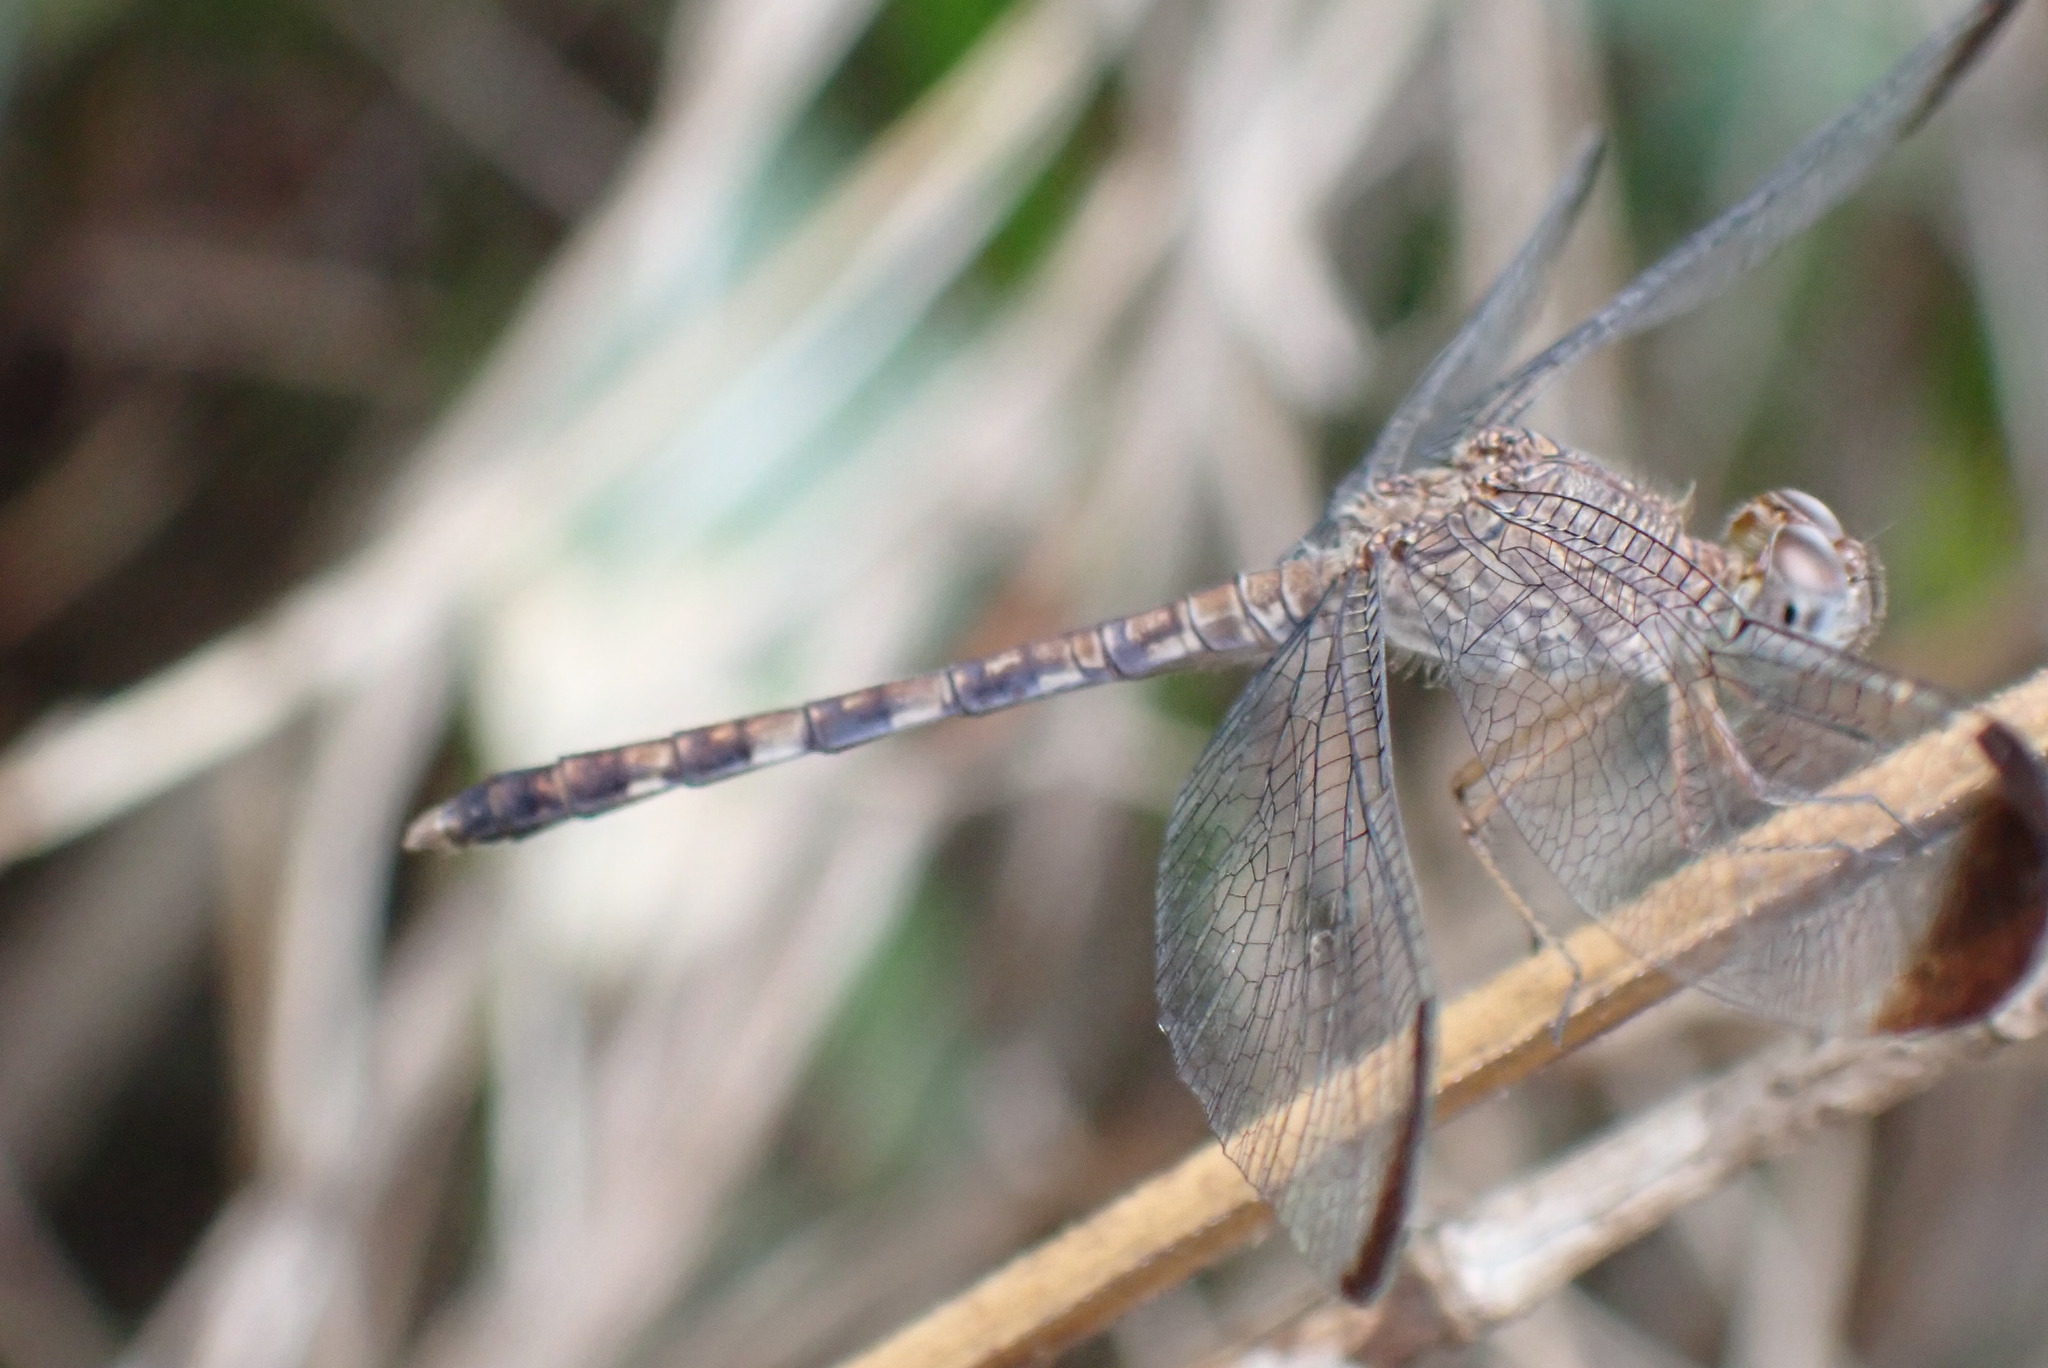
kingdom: Animalia
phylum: Arthropoda
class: Insecta
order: Odonata
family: Libellulidae
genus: Uracis
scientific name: Uracis imbuta
